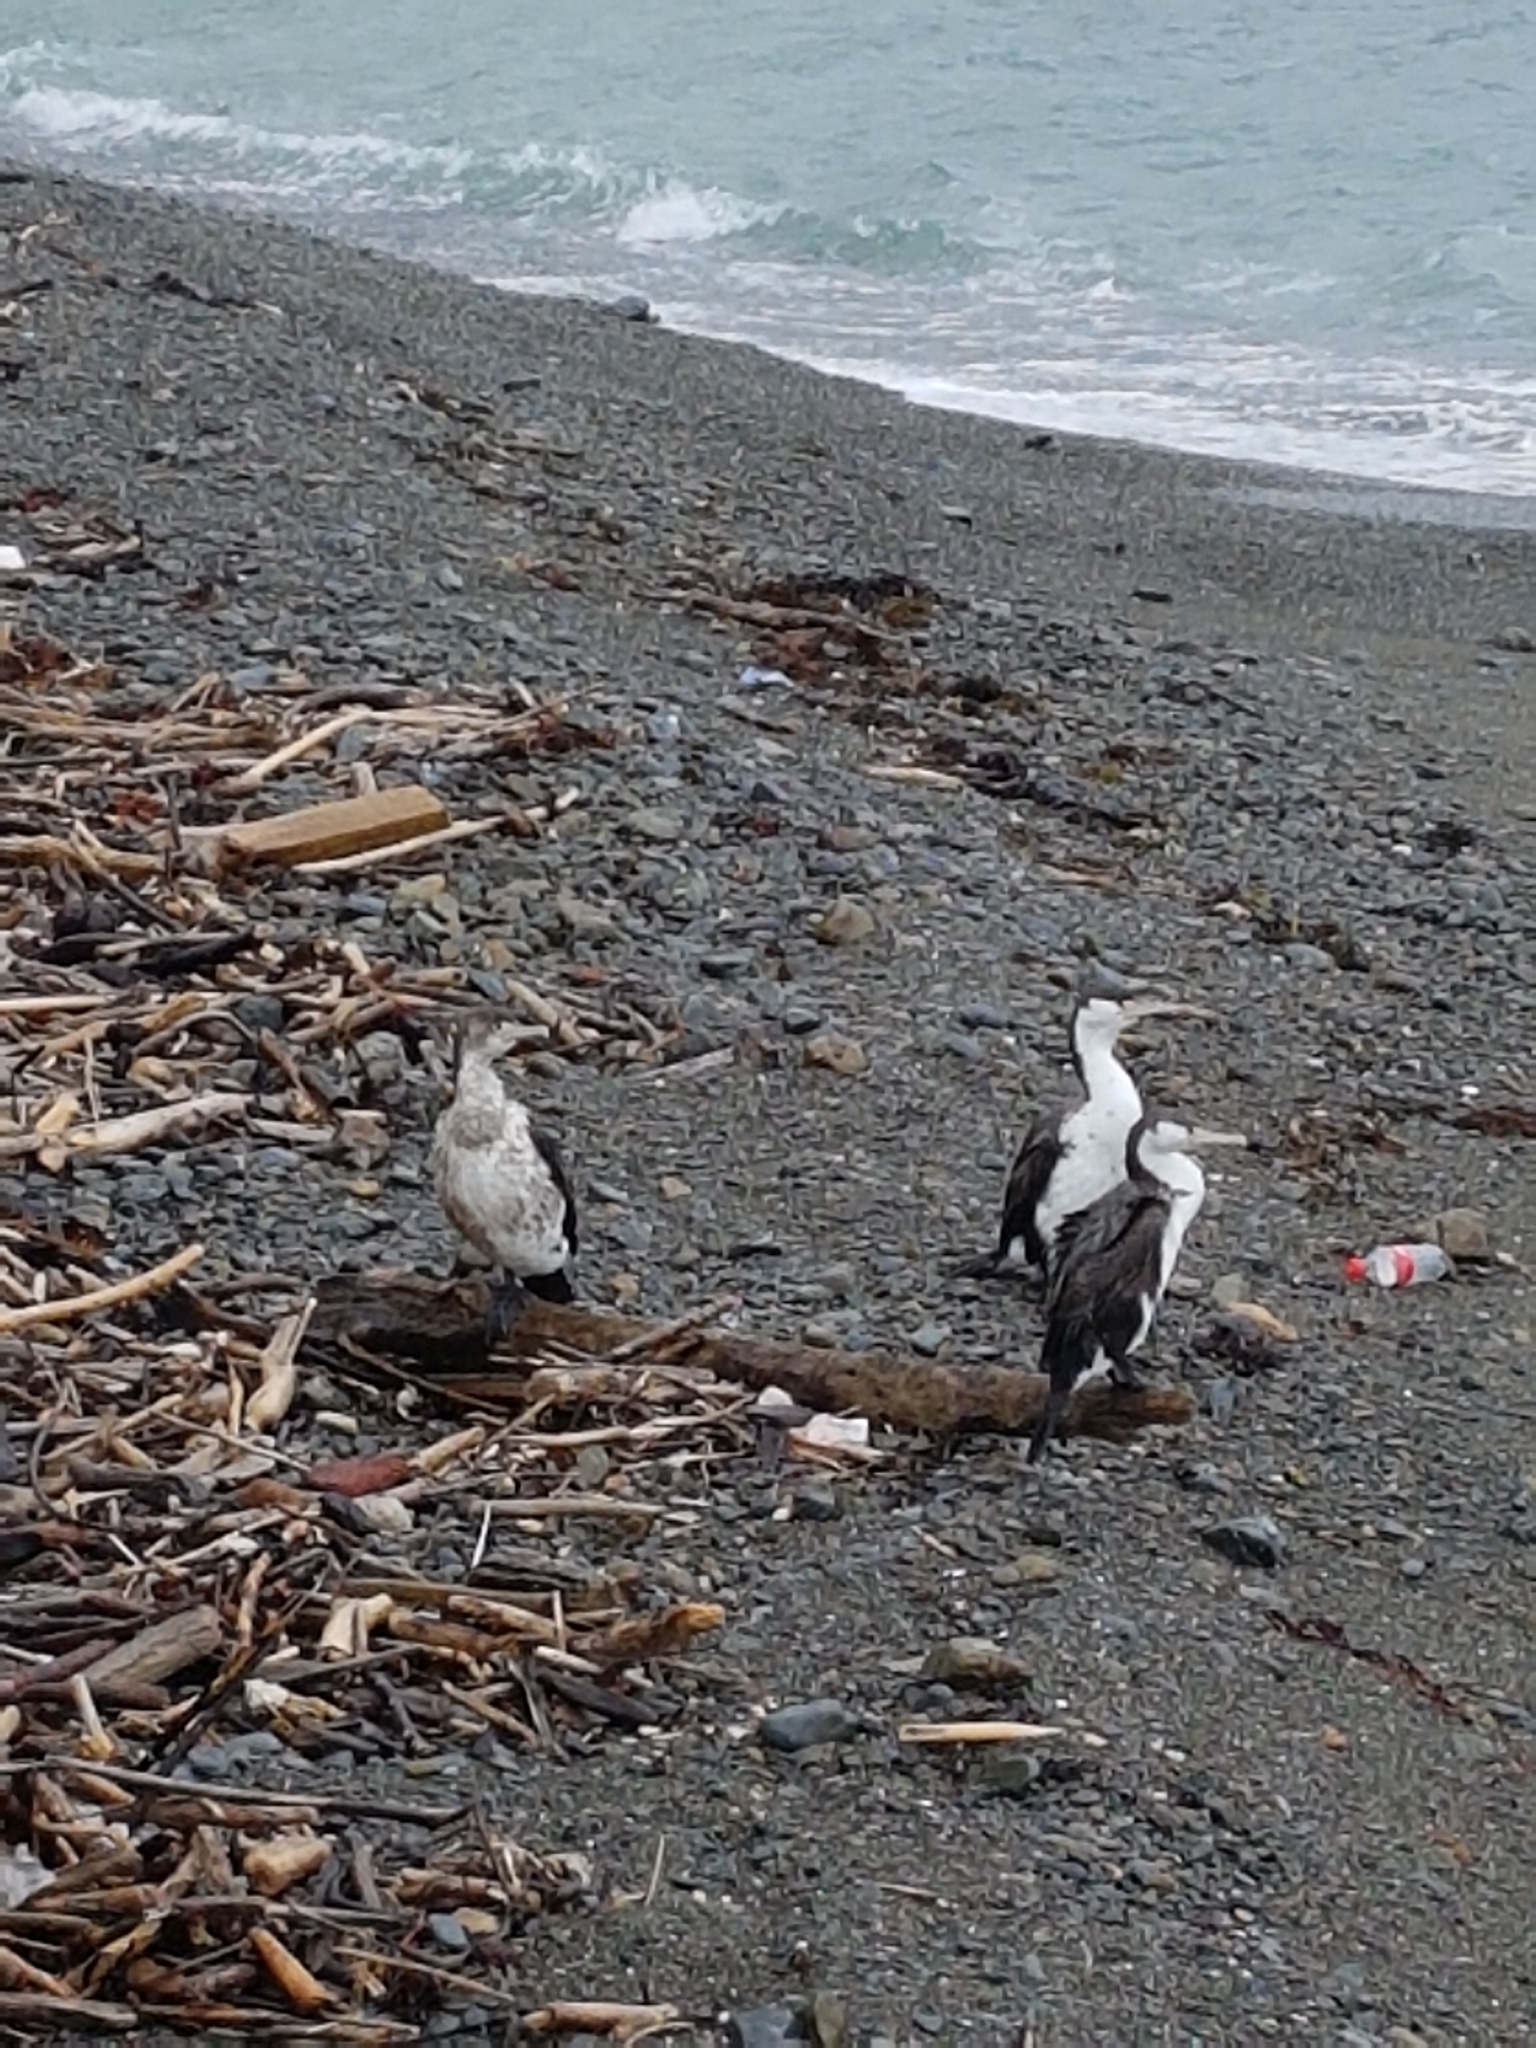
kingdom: Animalia
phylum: Chordata
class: Aves
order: Suliformes
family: Phalacrocoracidae
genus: Phalacrocorax
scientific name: Phalacrocorax varius
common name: Pied cormorant
